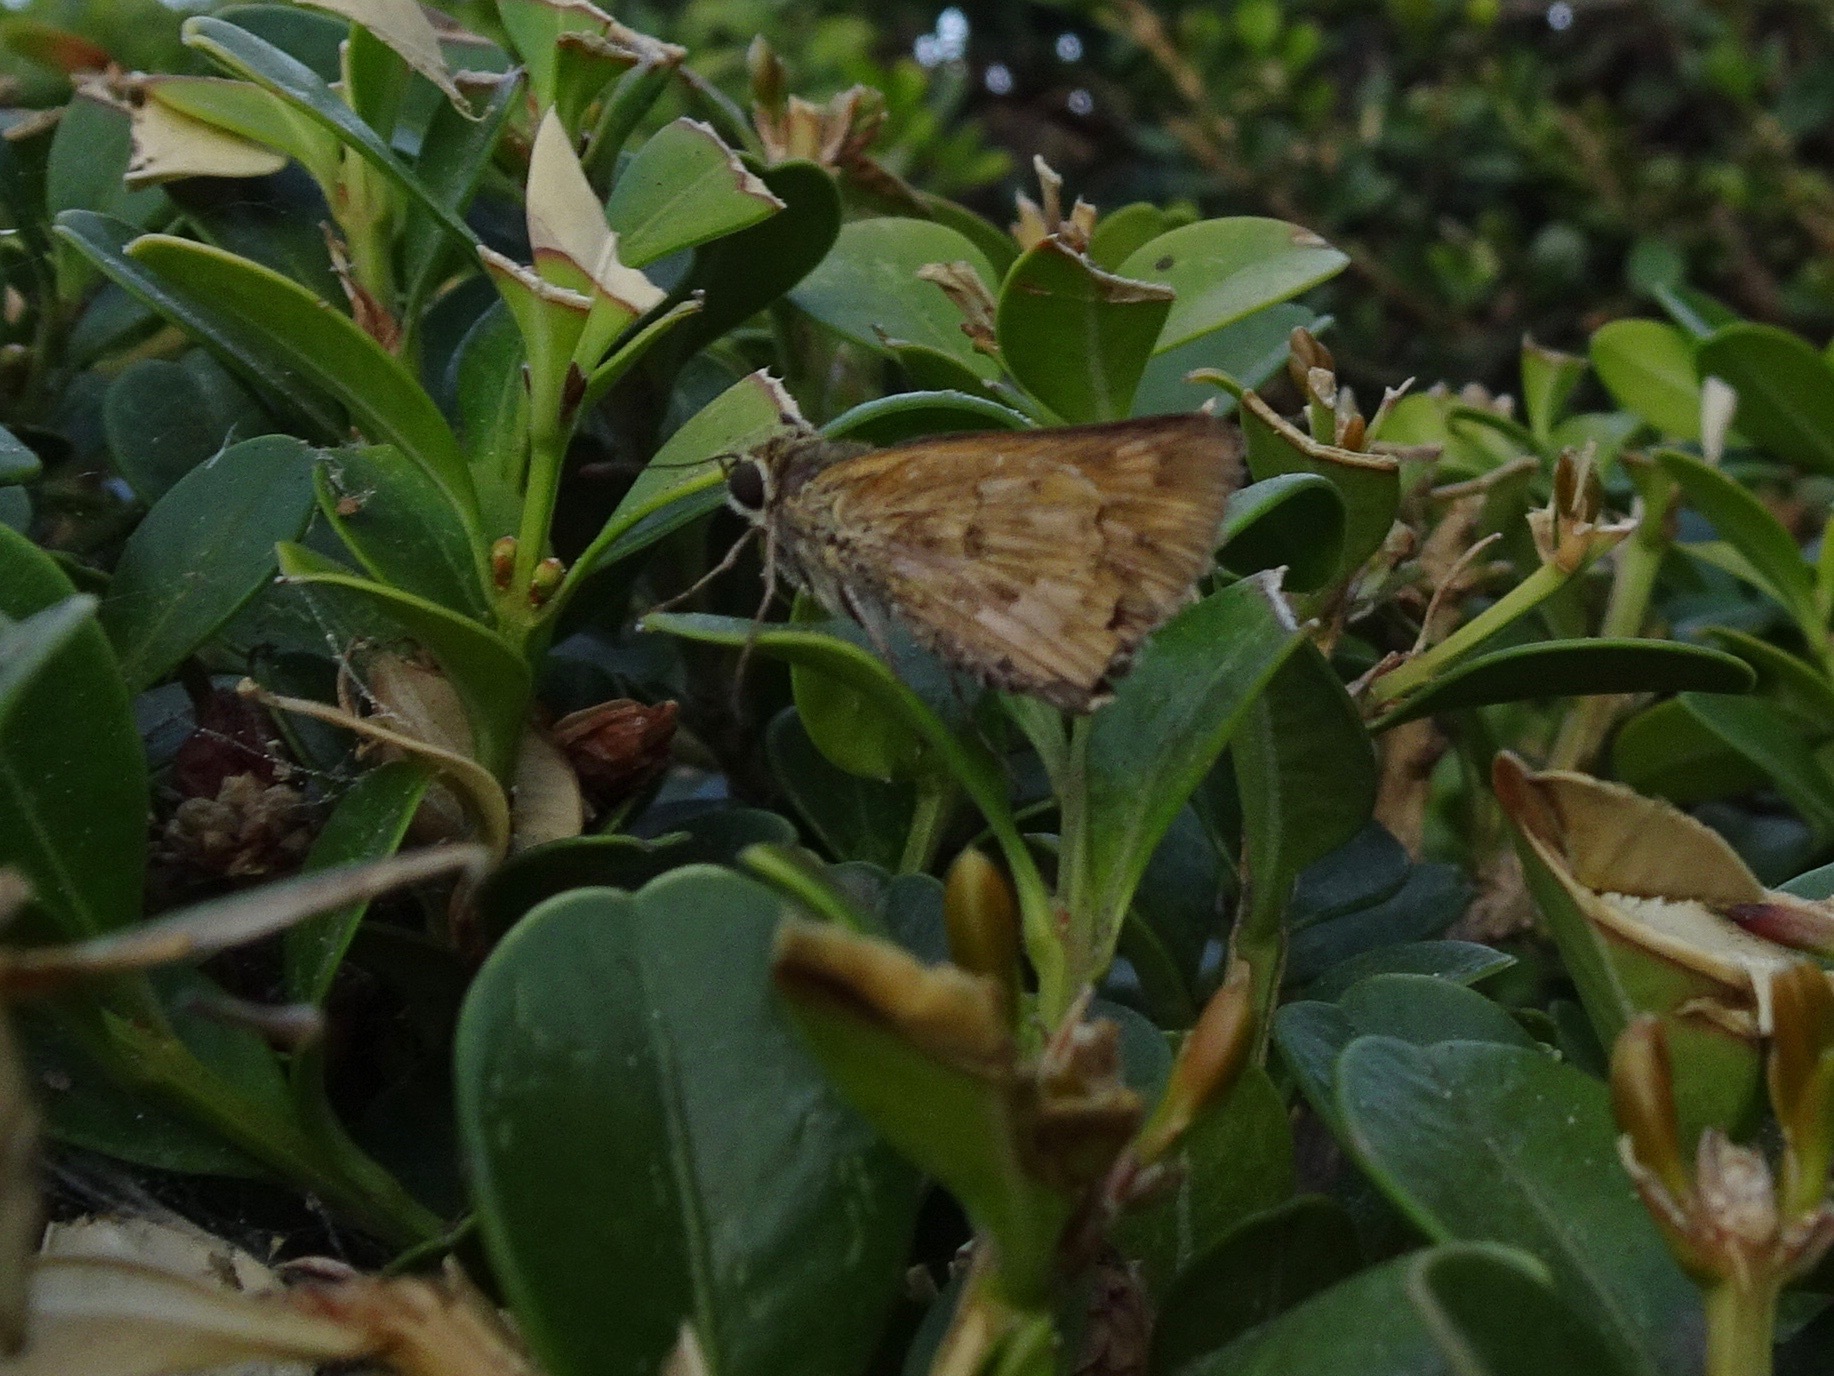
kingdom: Animalia
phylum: Arthropoda
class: Insecta
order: Lepidoptera
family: Hesperiidae
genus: Hylephila
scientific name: Hylephila phyleus
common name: Fiery skipper
